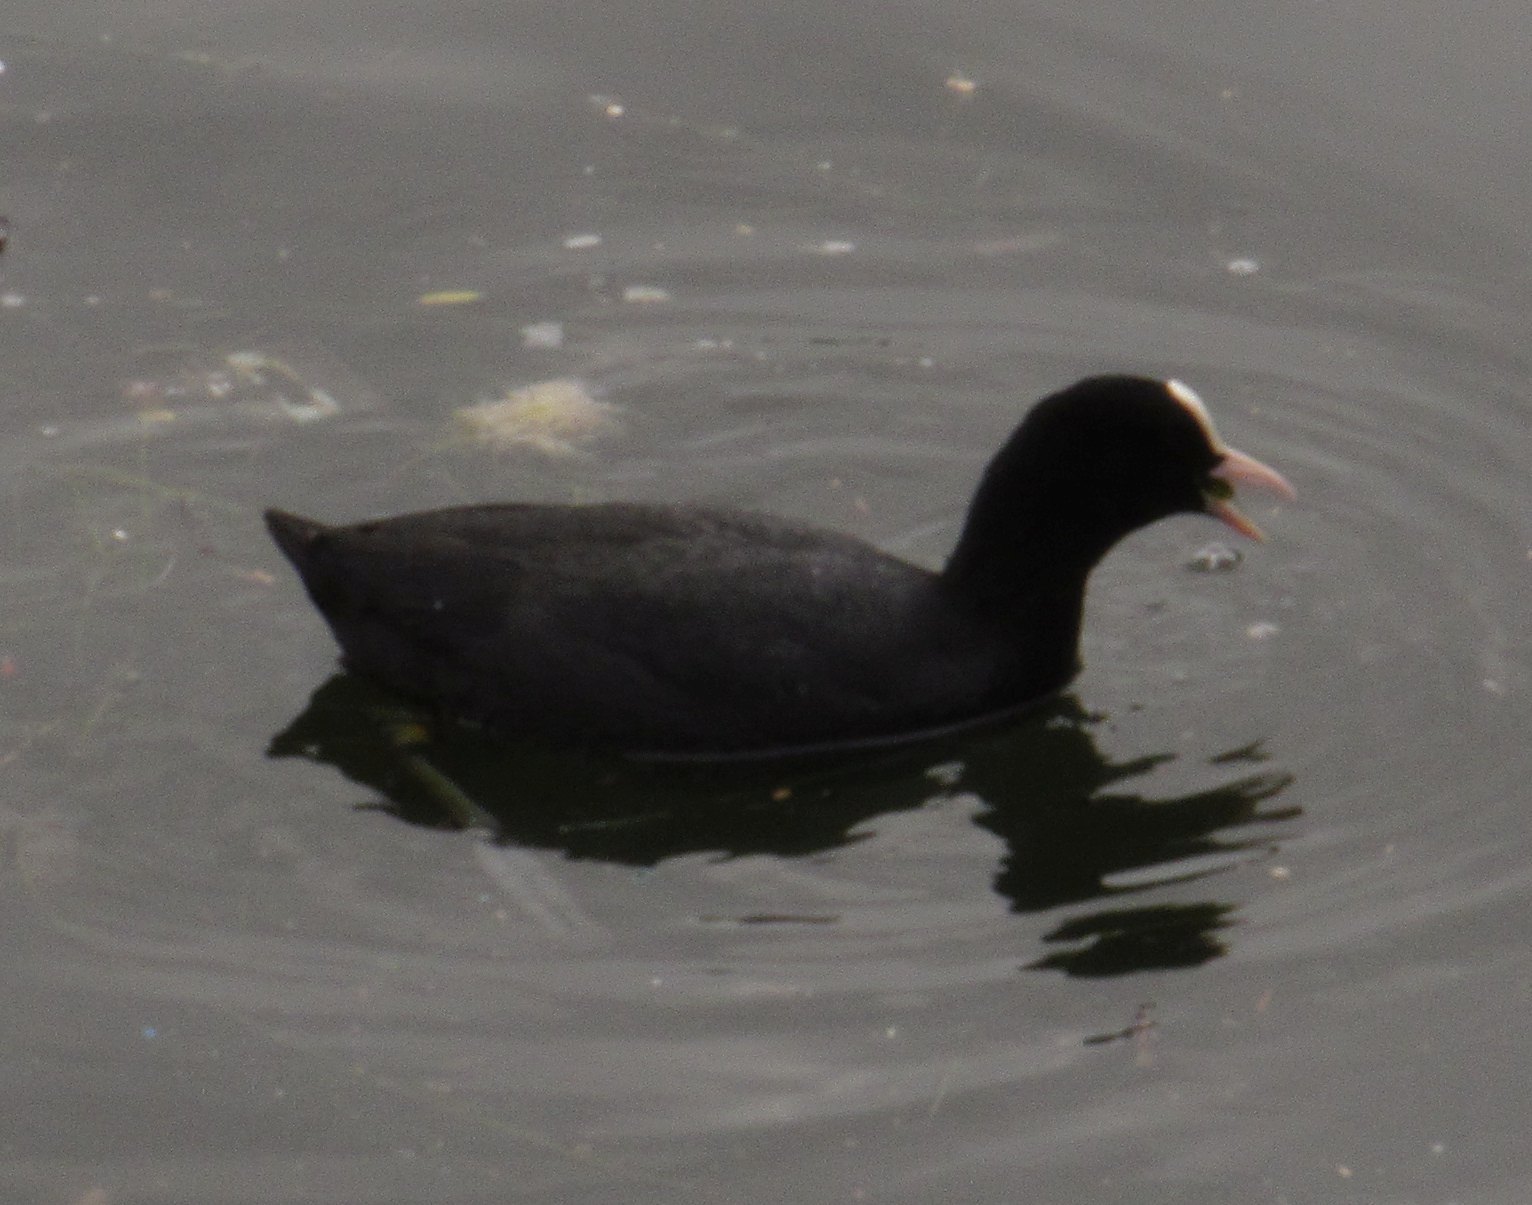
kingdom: Animalia
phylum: Chordata
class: Aves
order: Gruiformes
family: Rallidae
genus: Fulica
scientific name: Fulica atra
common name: Eurasian coot
